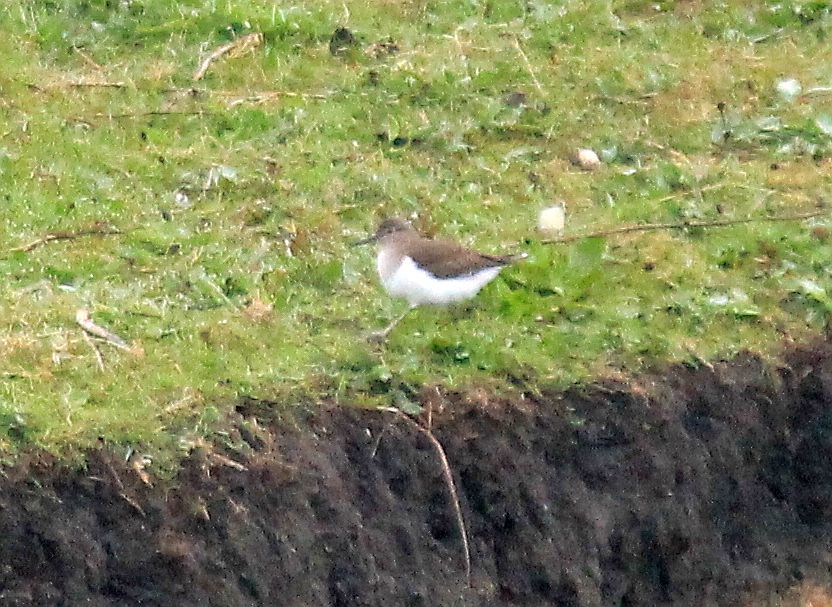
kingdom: Animalia
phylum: Chordata
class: Aves
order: Charadriiformes
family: Scolopacidae
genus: Actitis
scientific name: Actitis hypoleucos
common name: Common sandpiper
